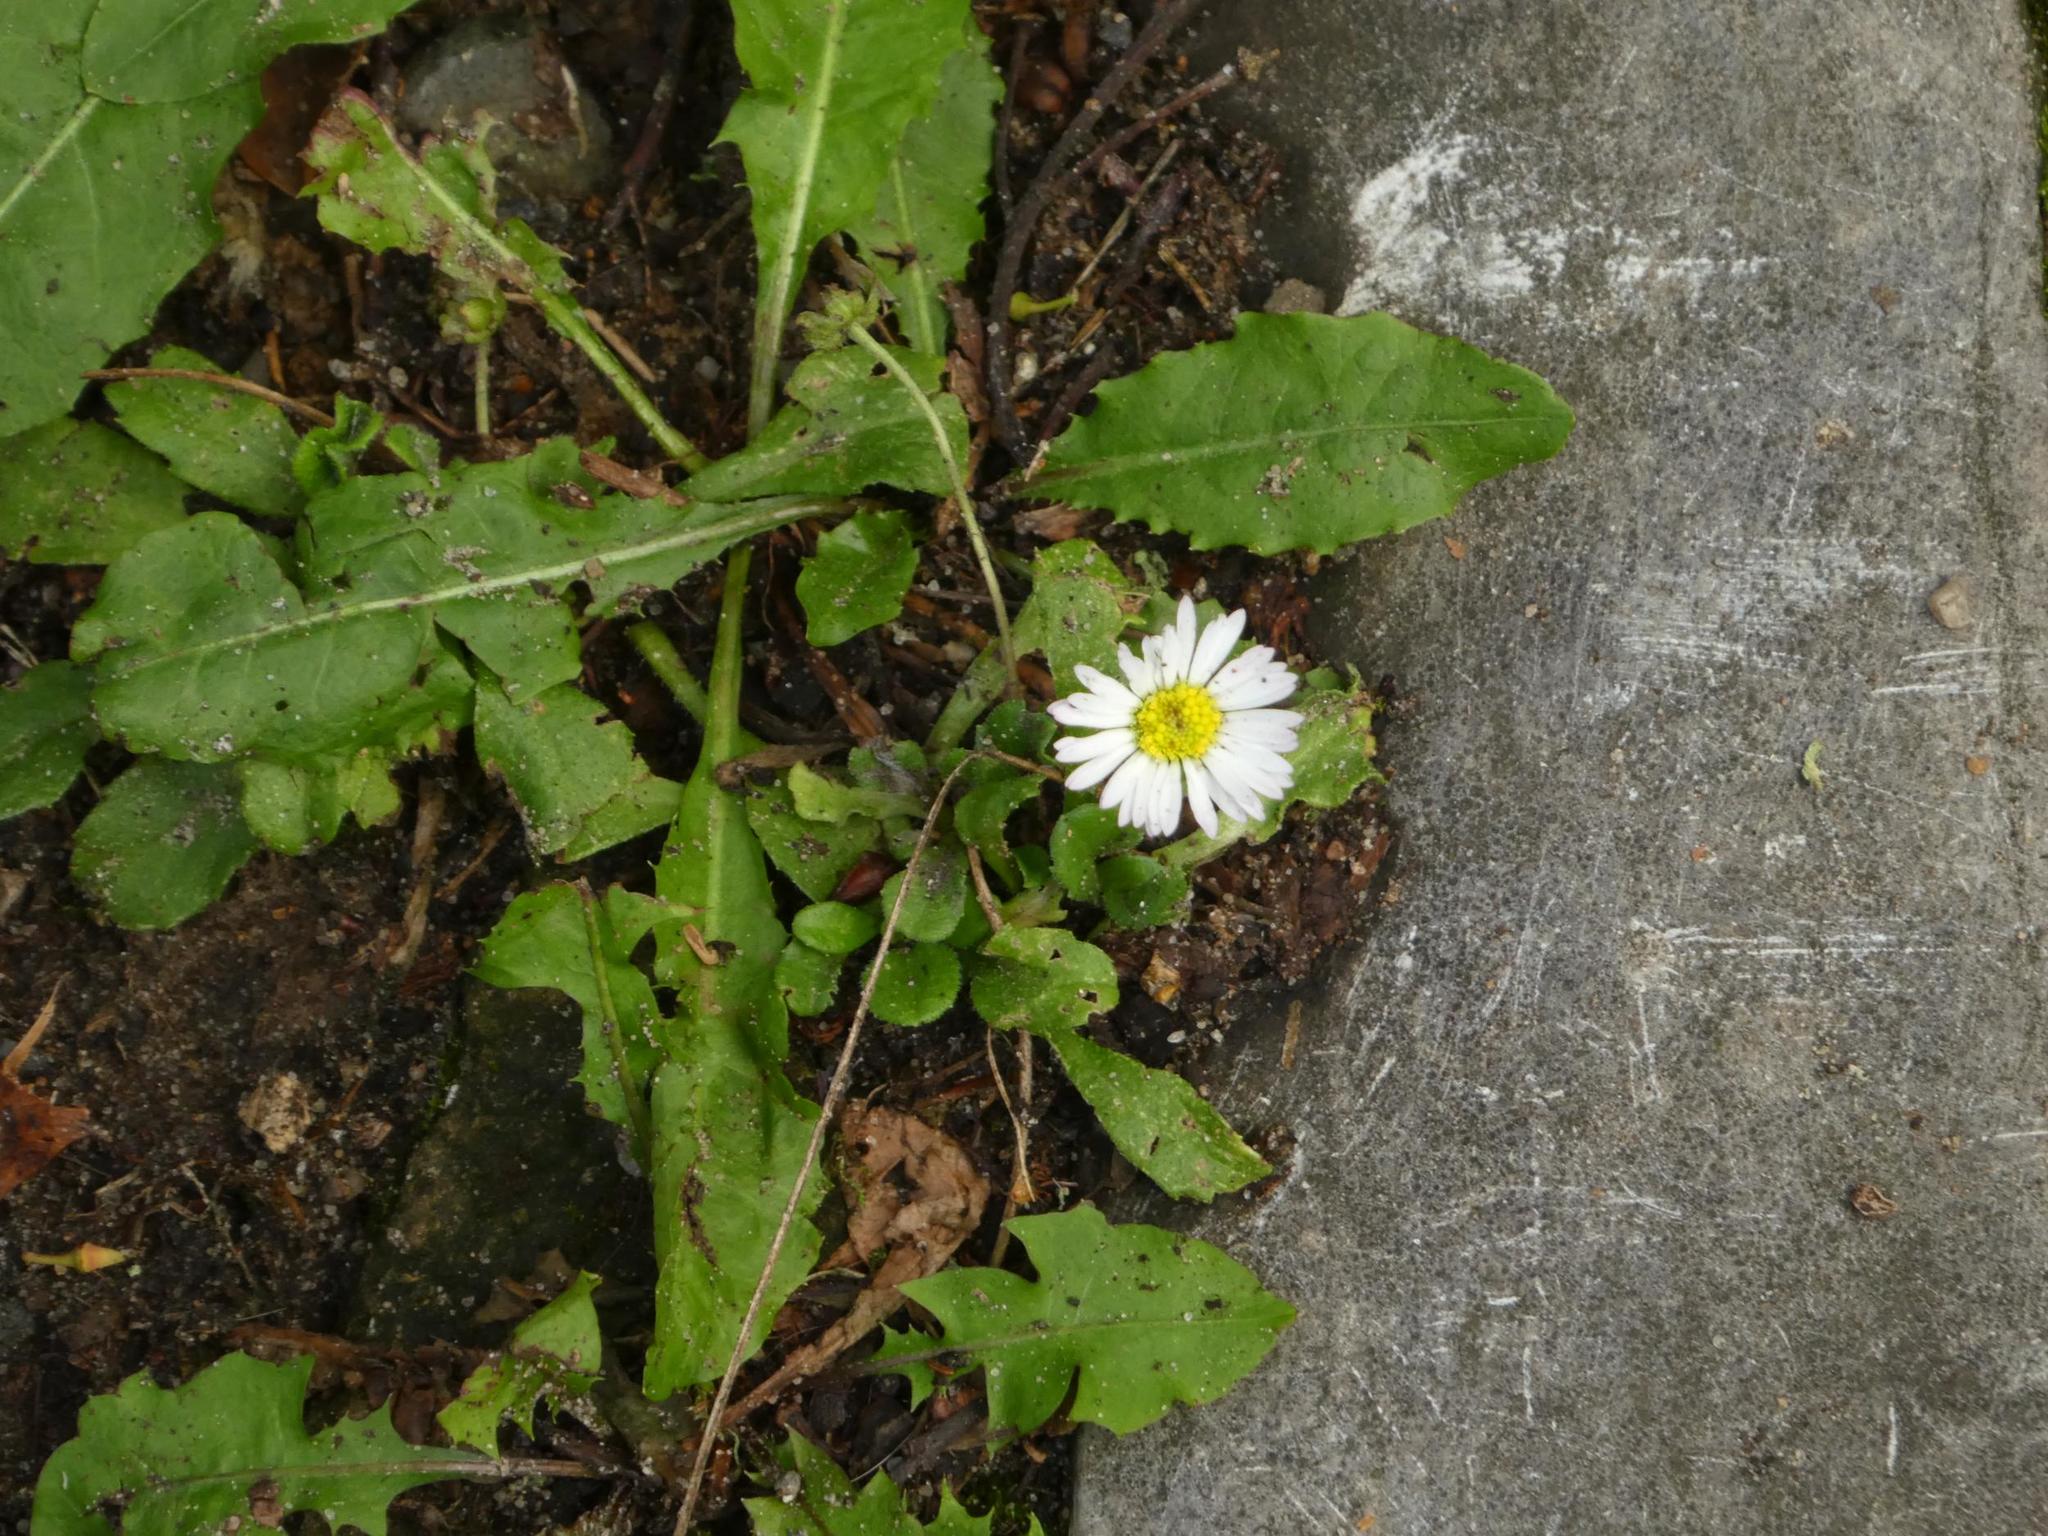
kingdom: Plantae
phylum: Tracheophyta
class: Magnoliopsida
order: Asterales
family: Asteraceae
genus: Bellis
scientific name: Bellis perennis
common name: Lawndaisy
